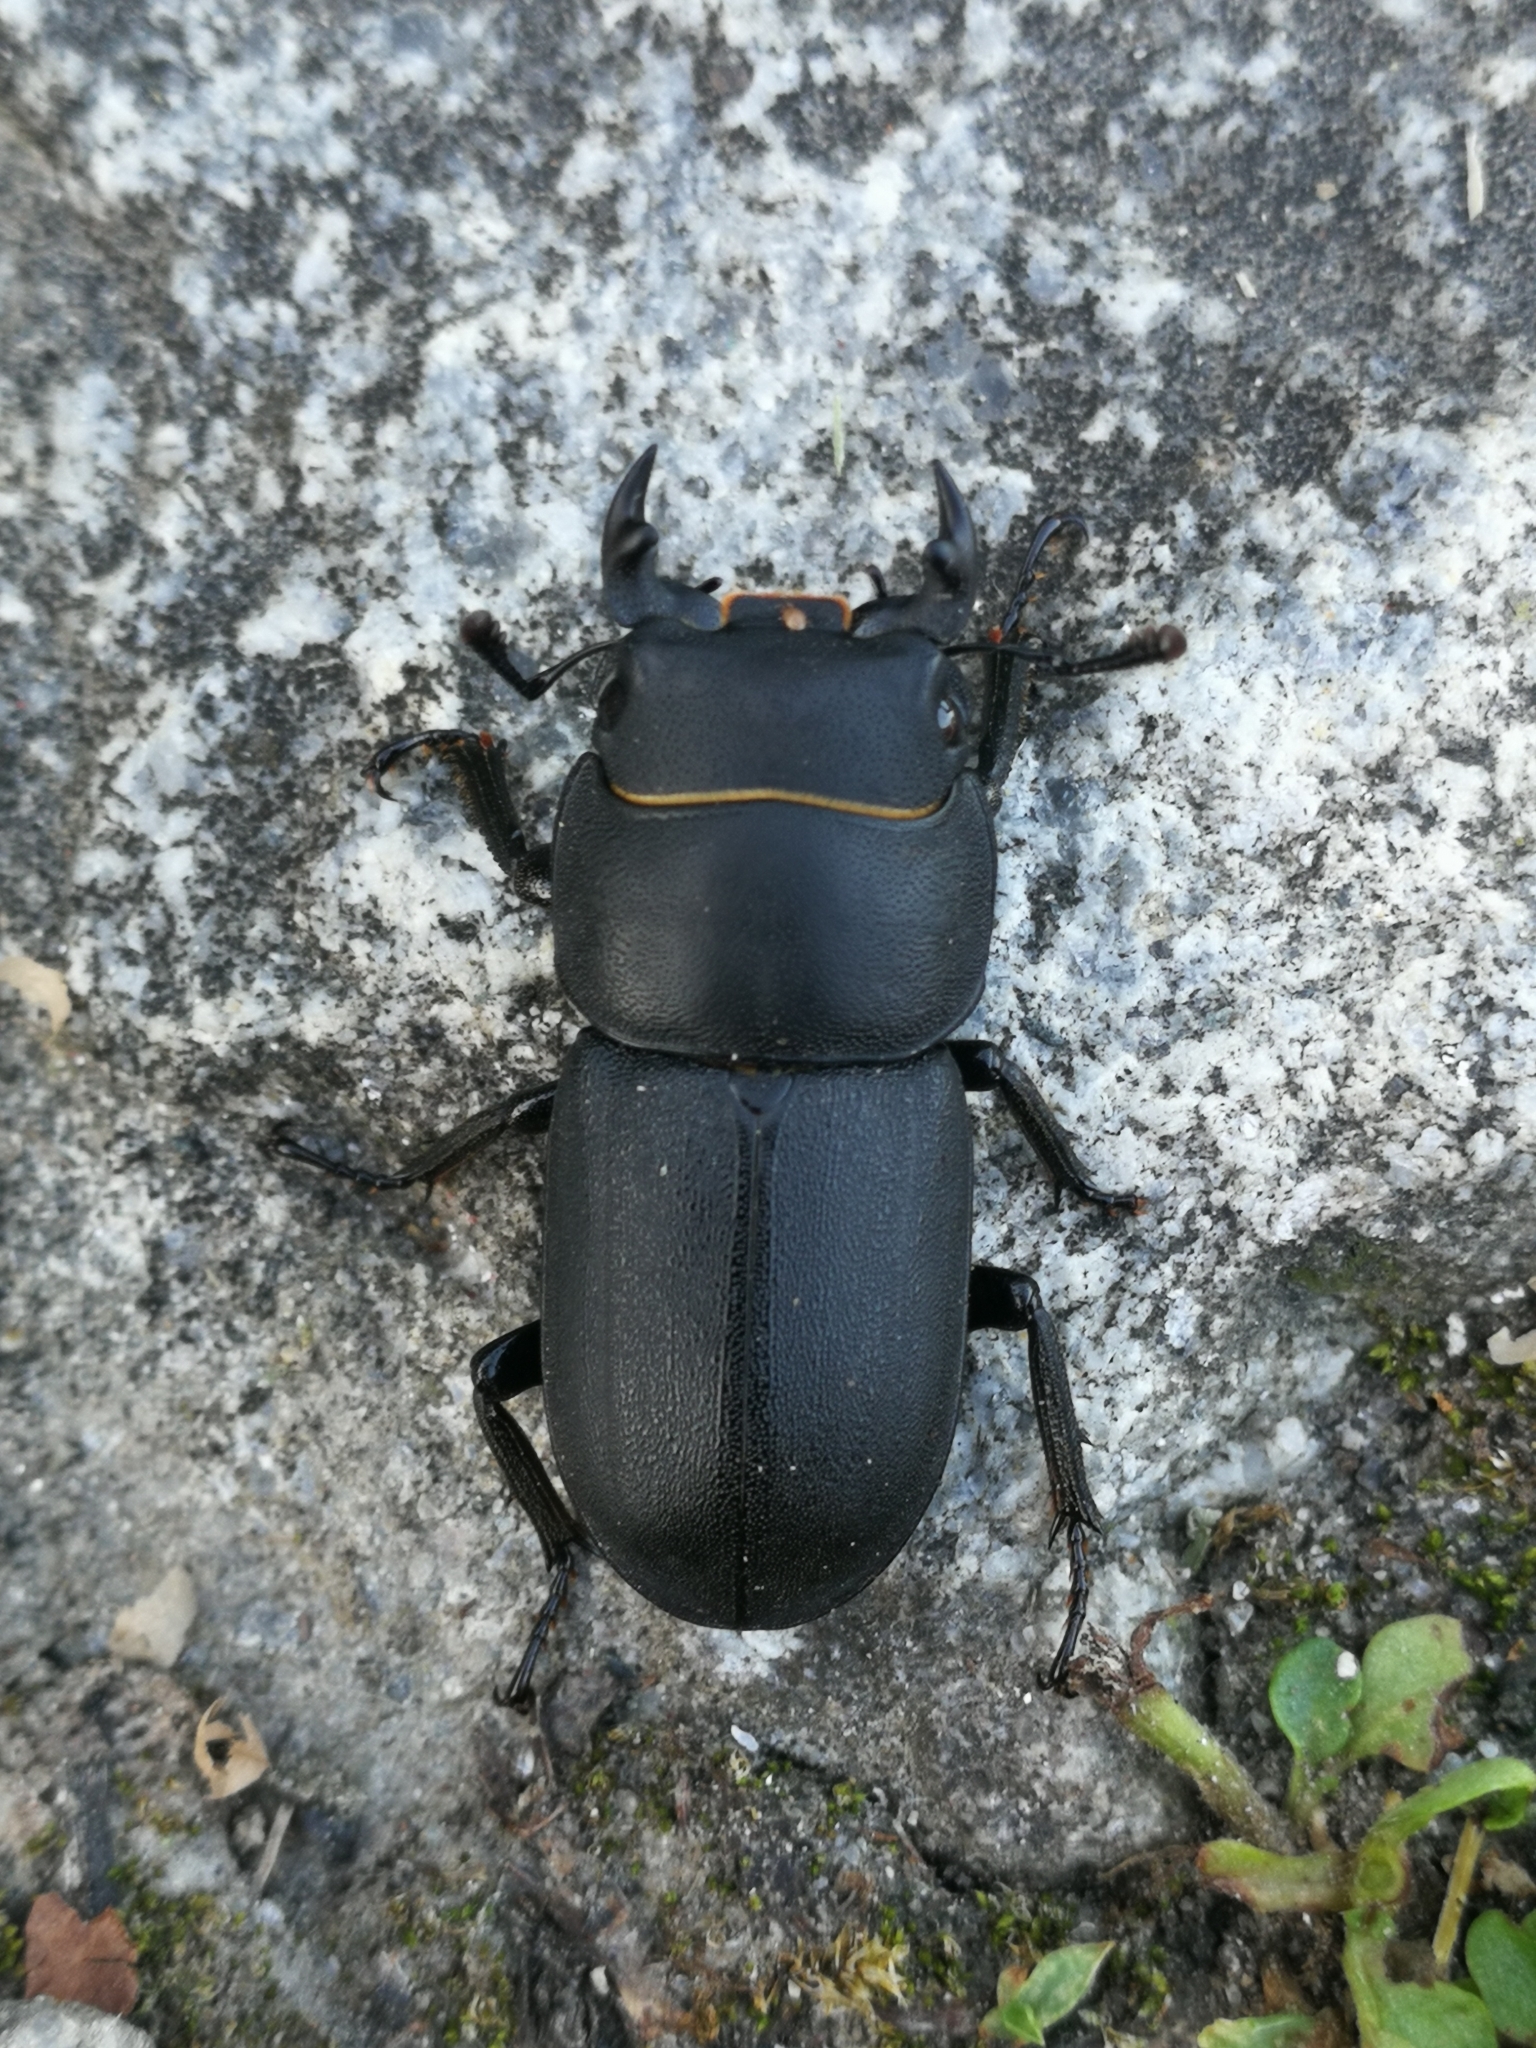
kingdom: Animalia
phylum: Arthropoda
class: Insecta
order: Coleoptera
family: Lucanidae
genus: Dorcus
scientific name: Dorcus parallelipipedus
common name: Lesser stag beetle
